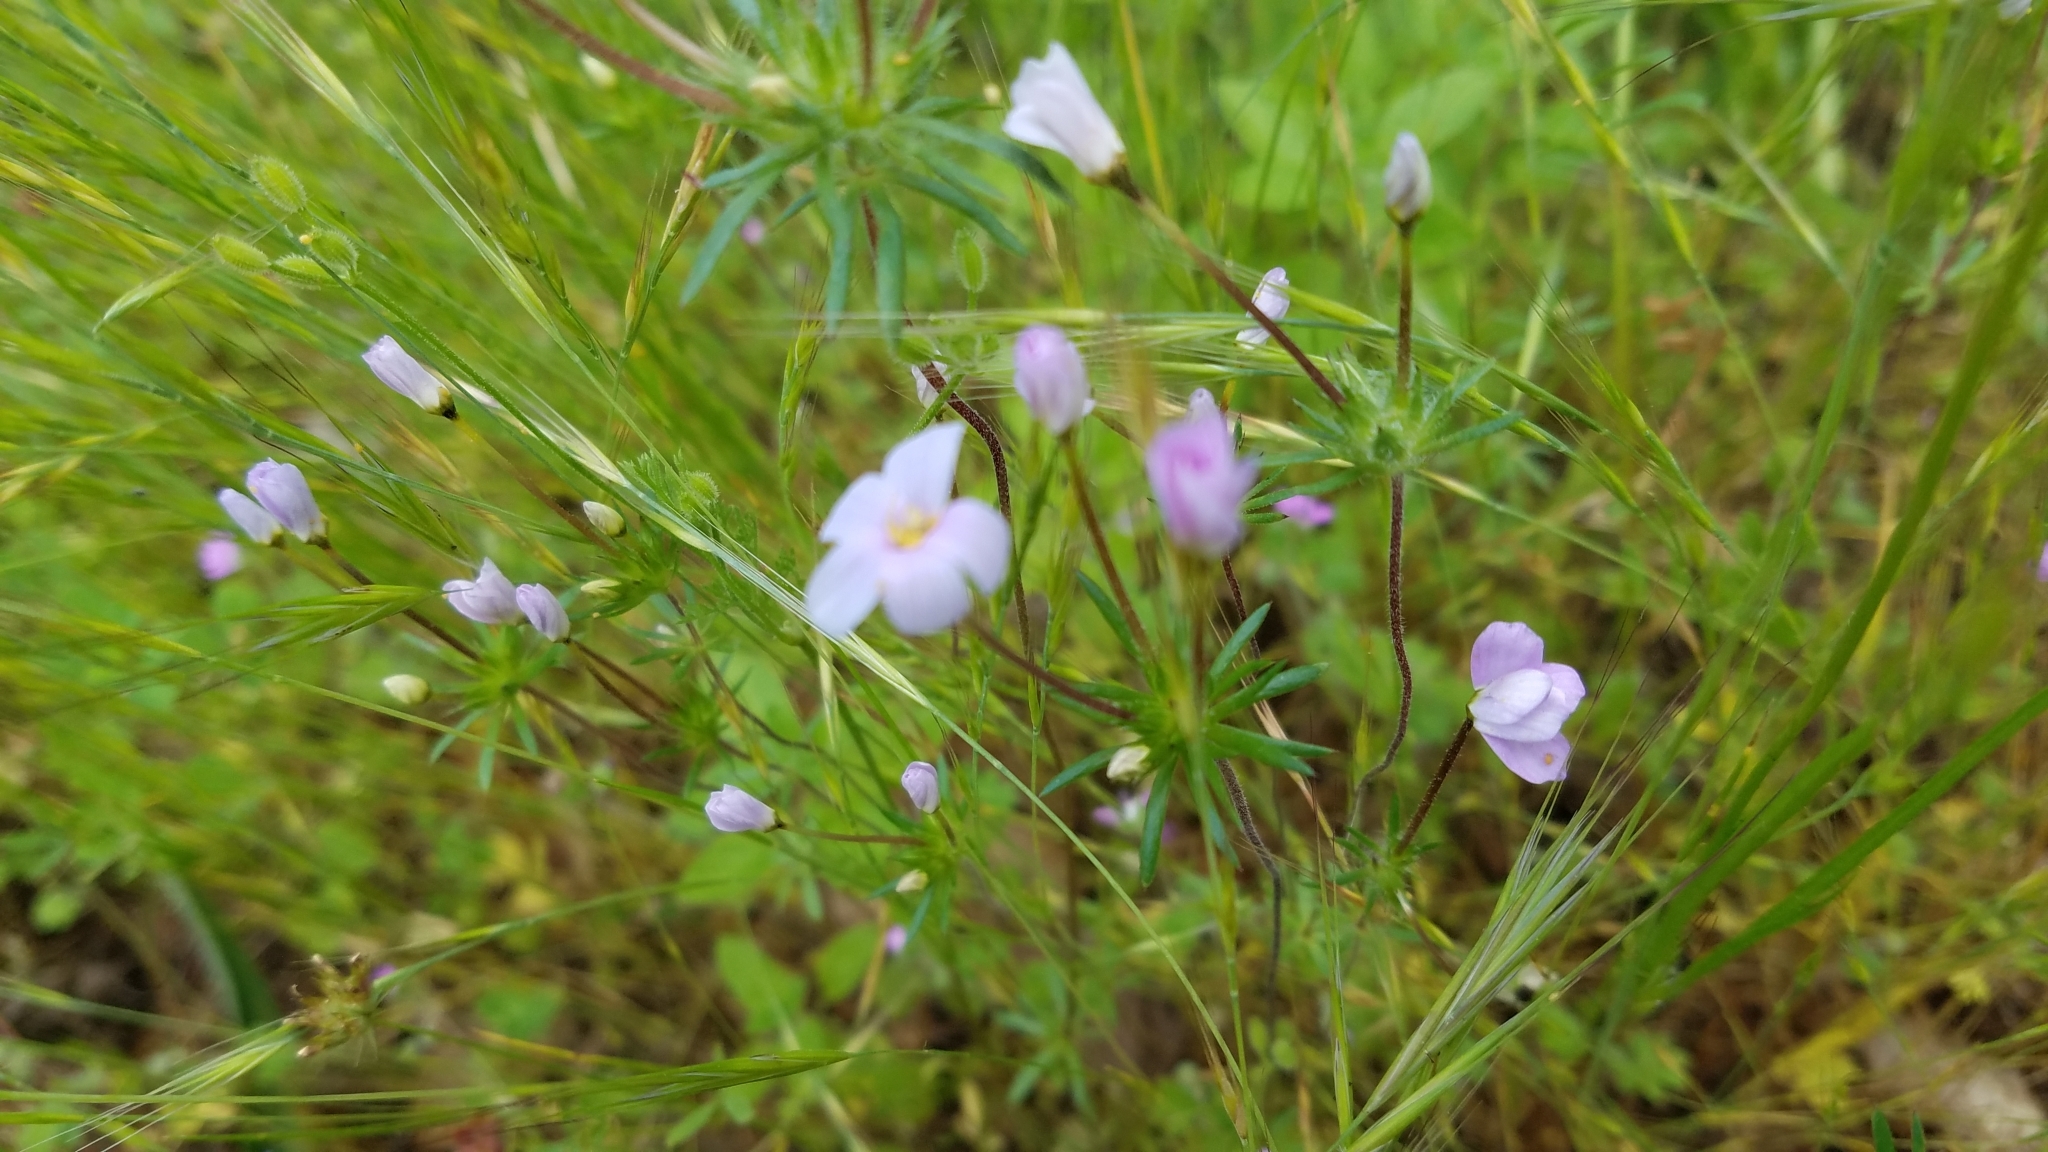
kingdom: Plantae
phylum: Tracheophyta
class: Magnoliopsida
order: Ericales
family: Polemoniaceae
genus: Leptosiphon
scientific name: Leptosiphon androsaceus
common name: False babystars
